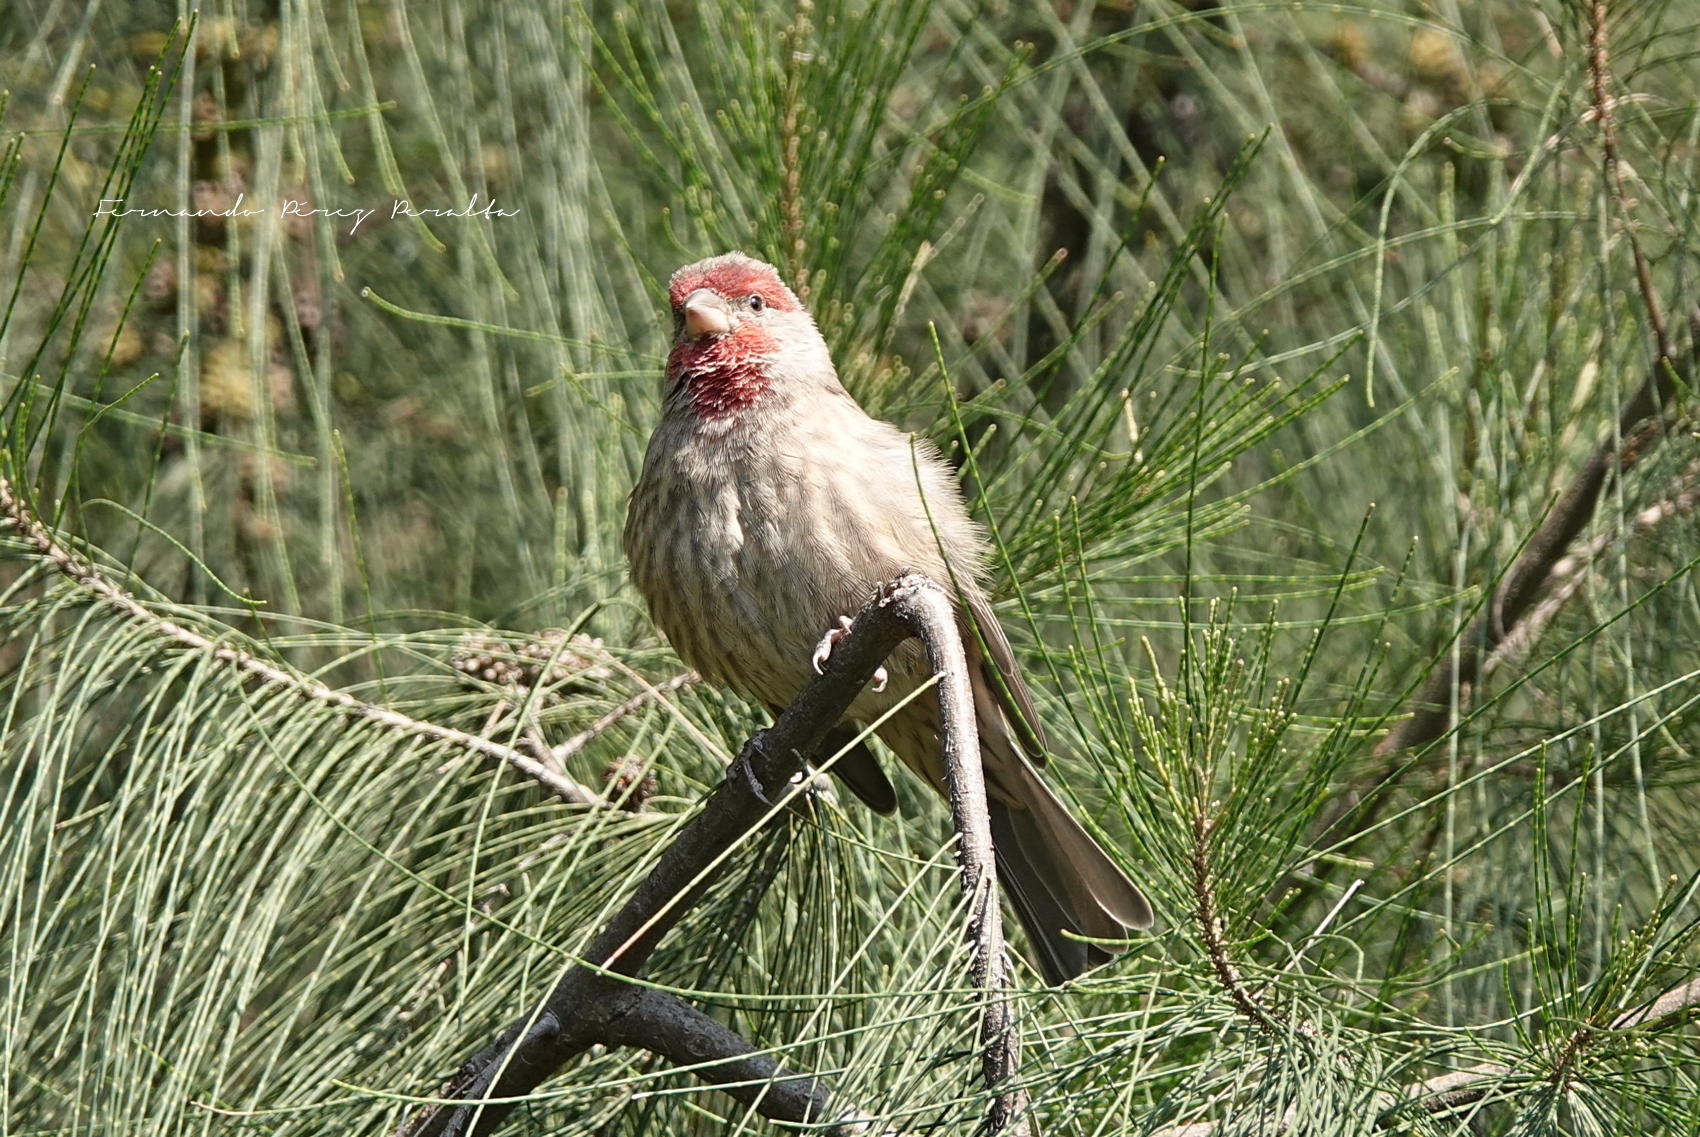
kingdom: Animalia
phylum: Chordata
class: Aves
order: Passeriformes
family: Fringillidae
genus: Haemorhous
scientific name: Haemorhous mexicanus
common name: House finch
